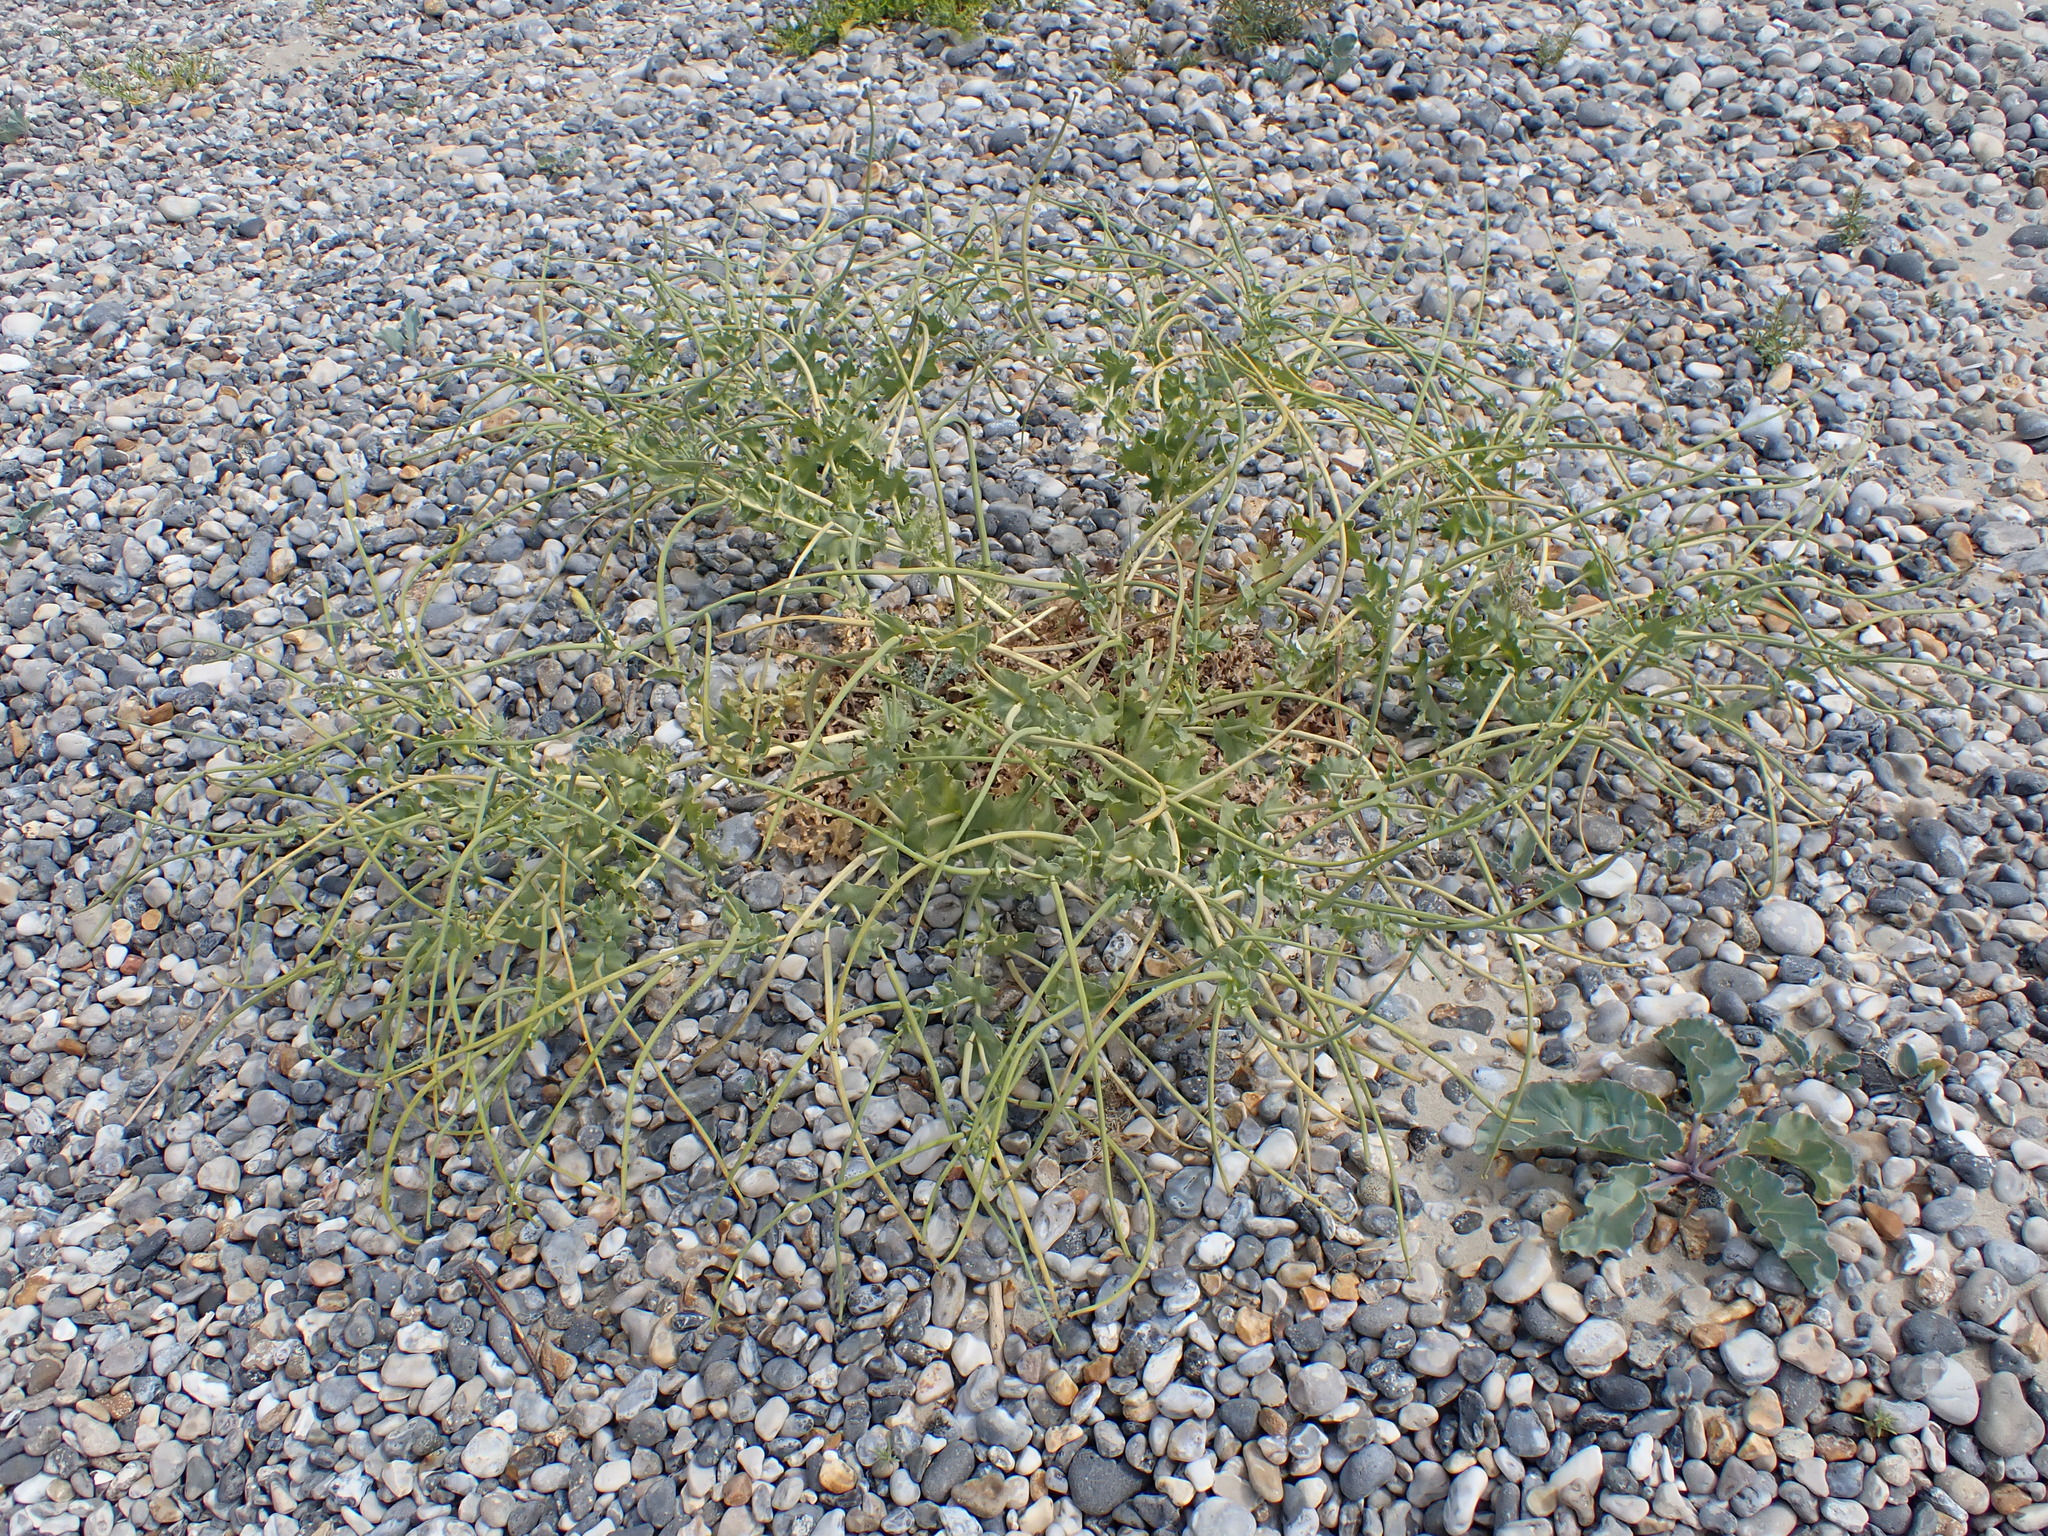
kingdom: Plantae
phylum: Tracheophyta
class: Magnoliopsida
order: Ranunculales
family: Papaveraceae
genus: Glaucium
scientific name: Glaucium flavum
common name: Yellow horned-poppy
